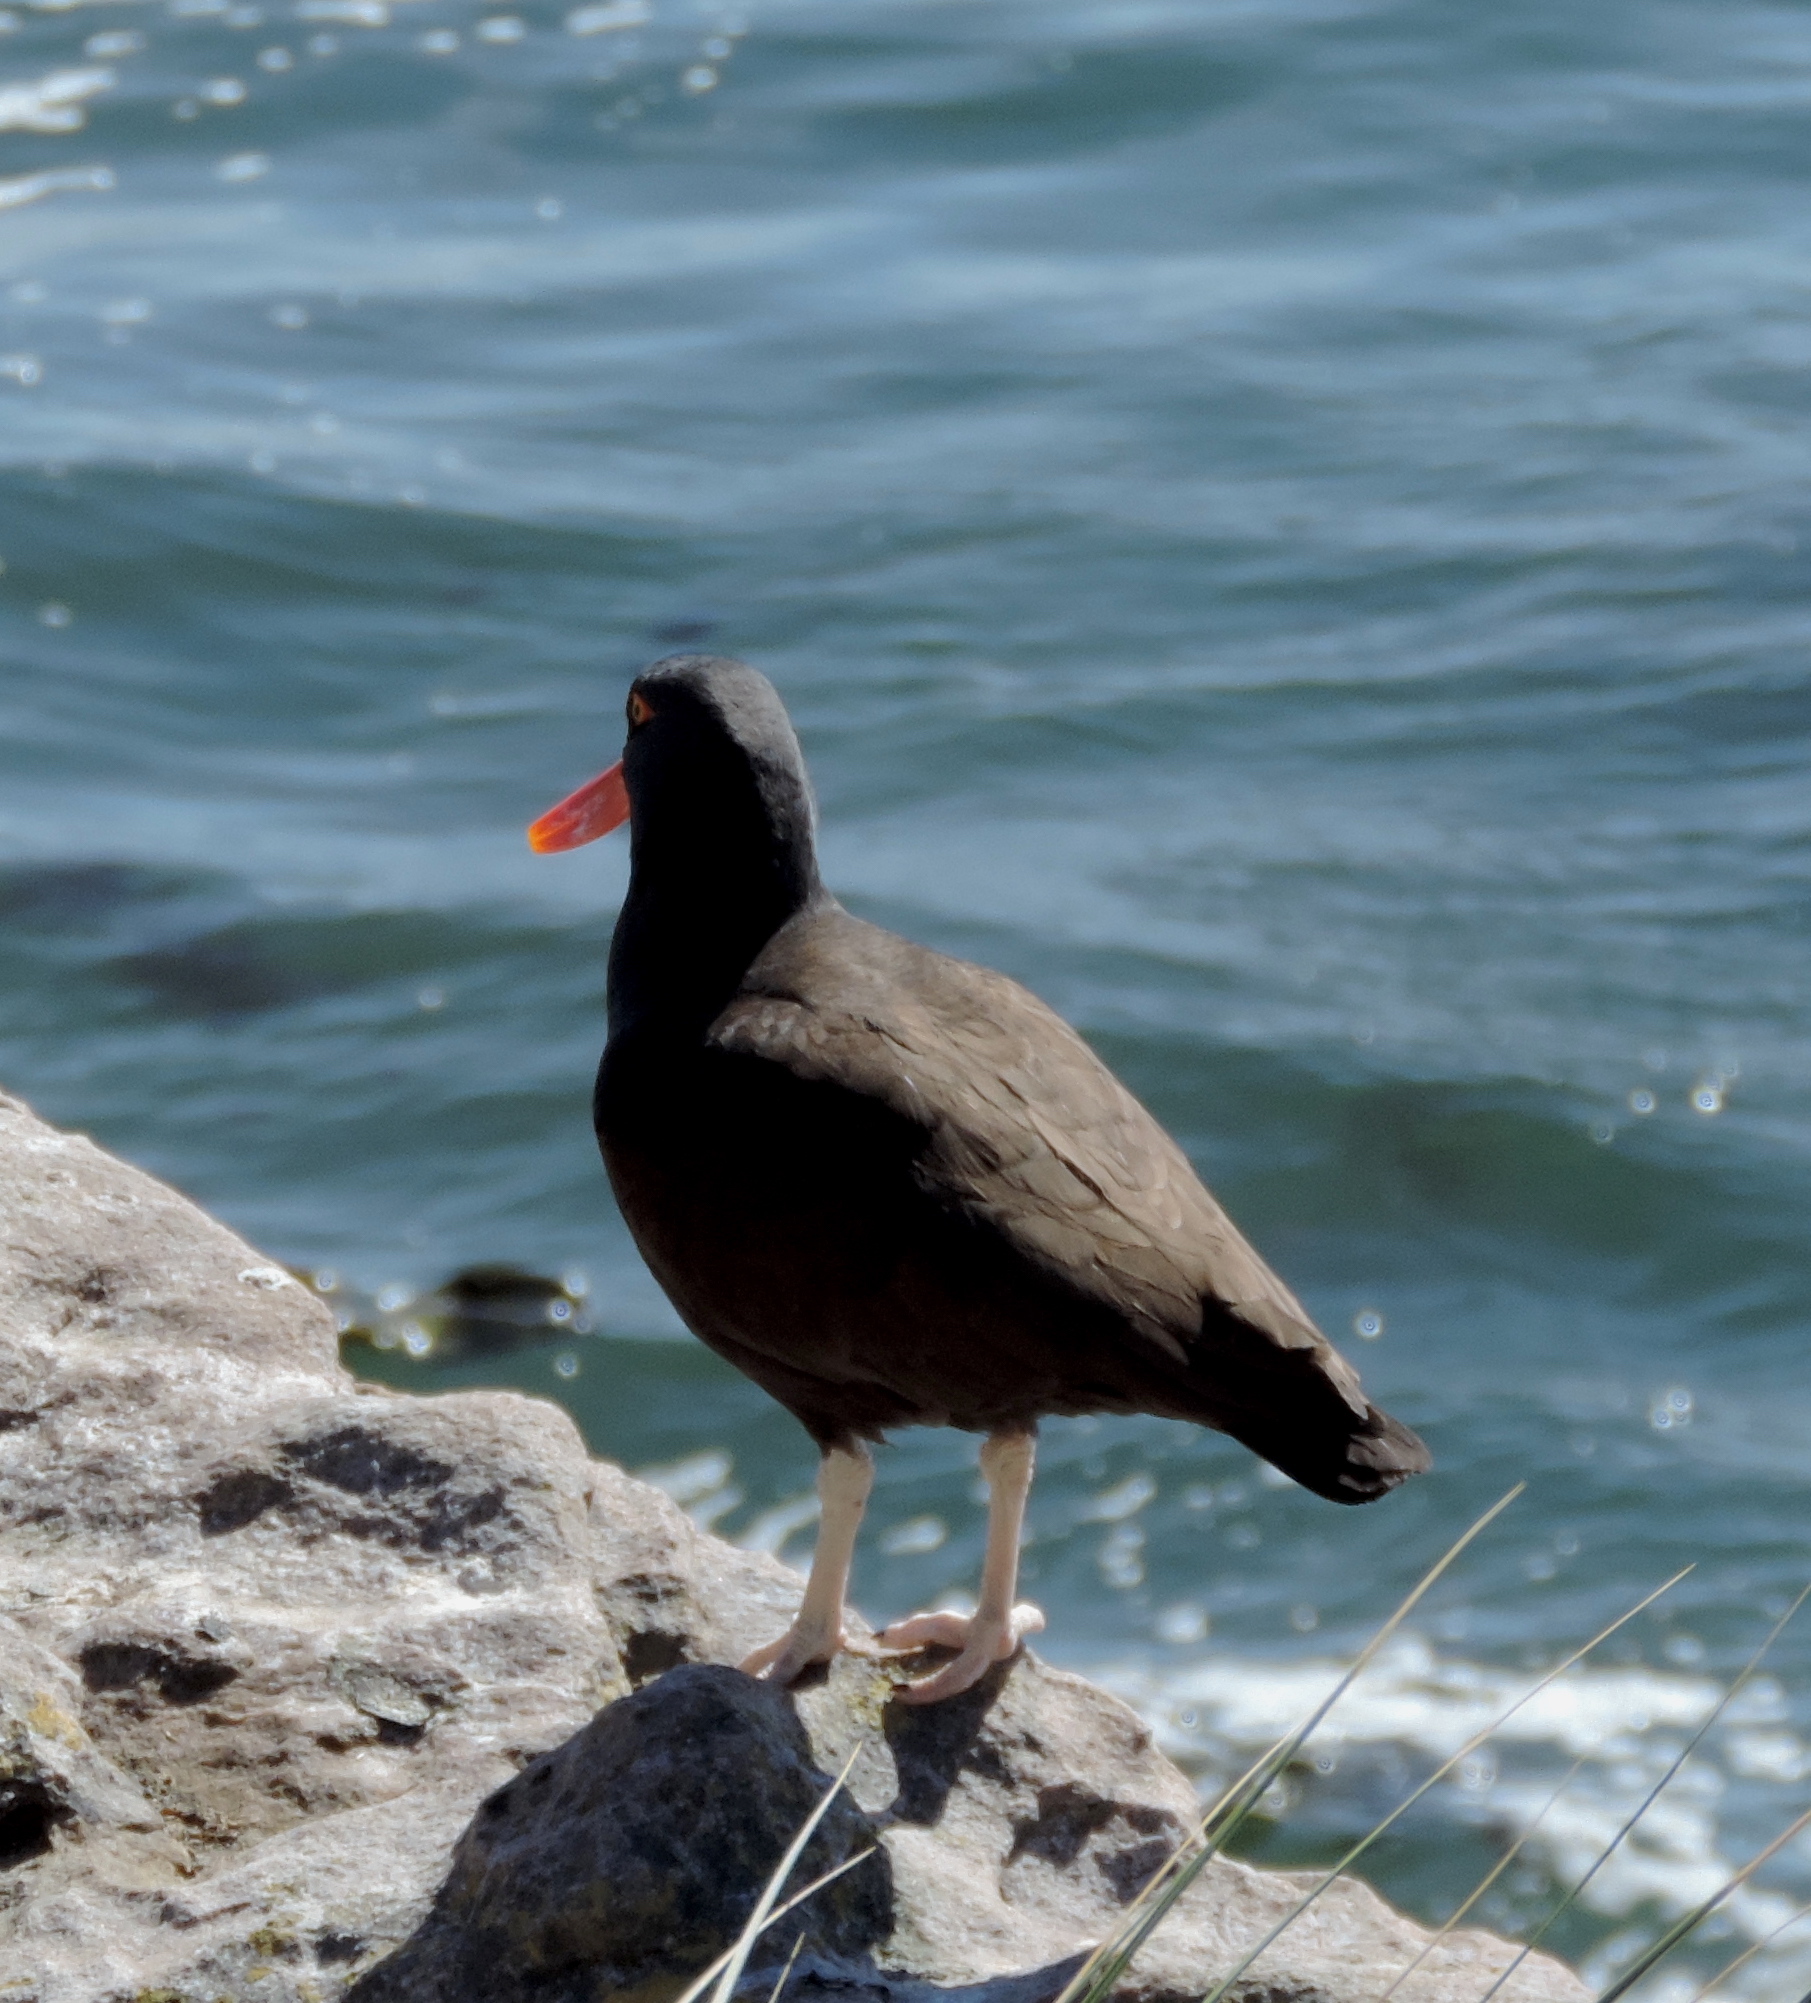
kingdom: Animalia
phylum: Chordata
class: Aves
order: Charadriiformes
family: Haematopodidae
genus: Haematopus
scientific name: Haematopus ater
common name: Blackish oystercatcher
